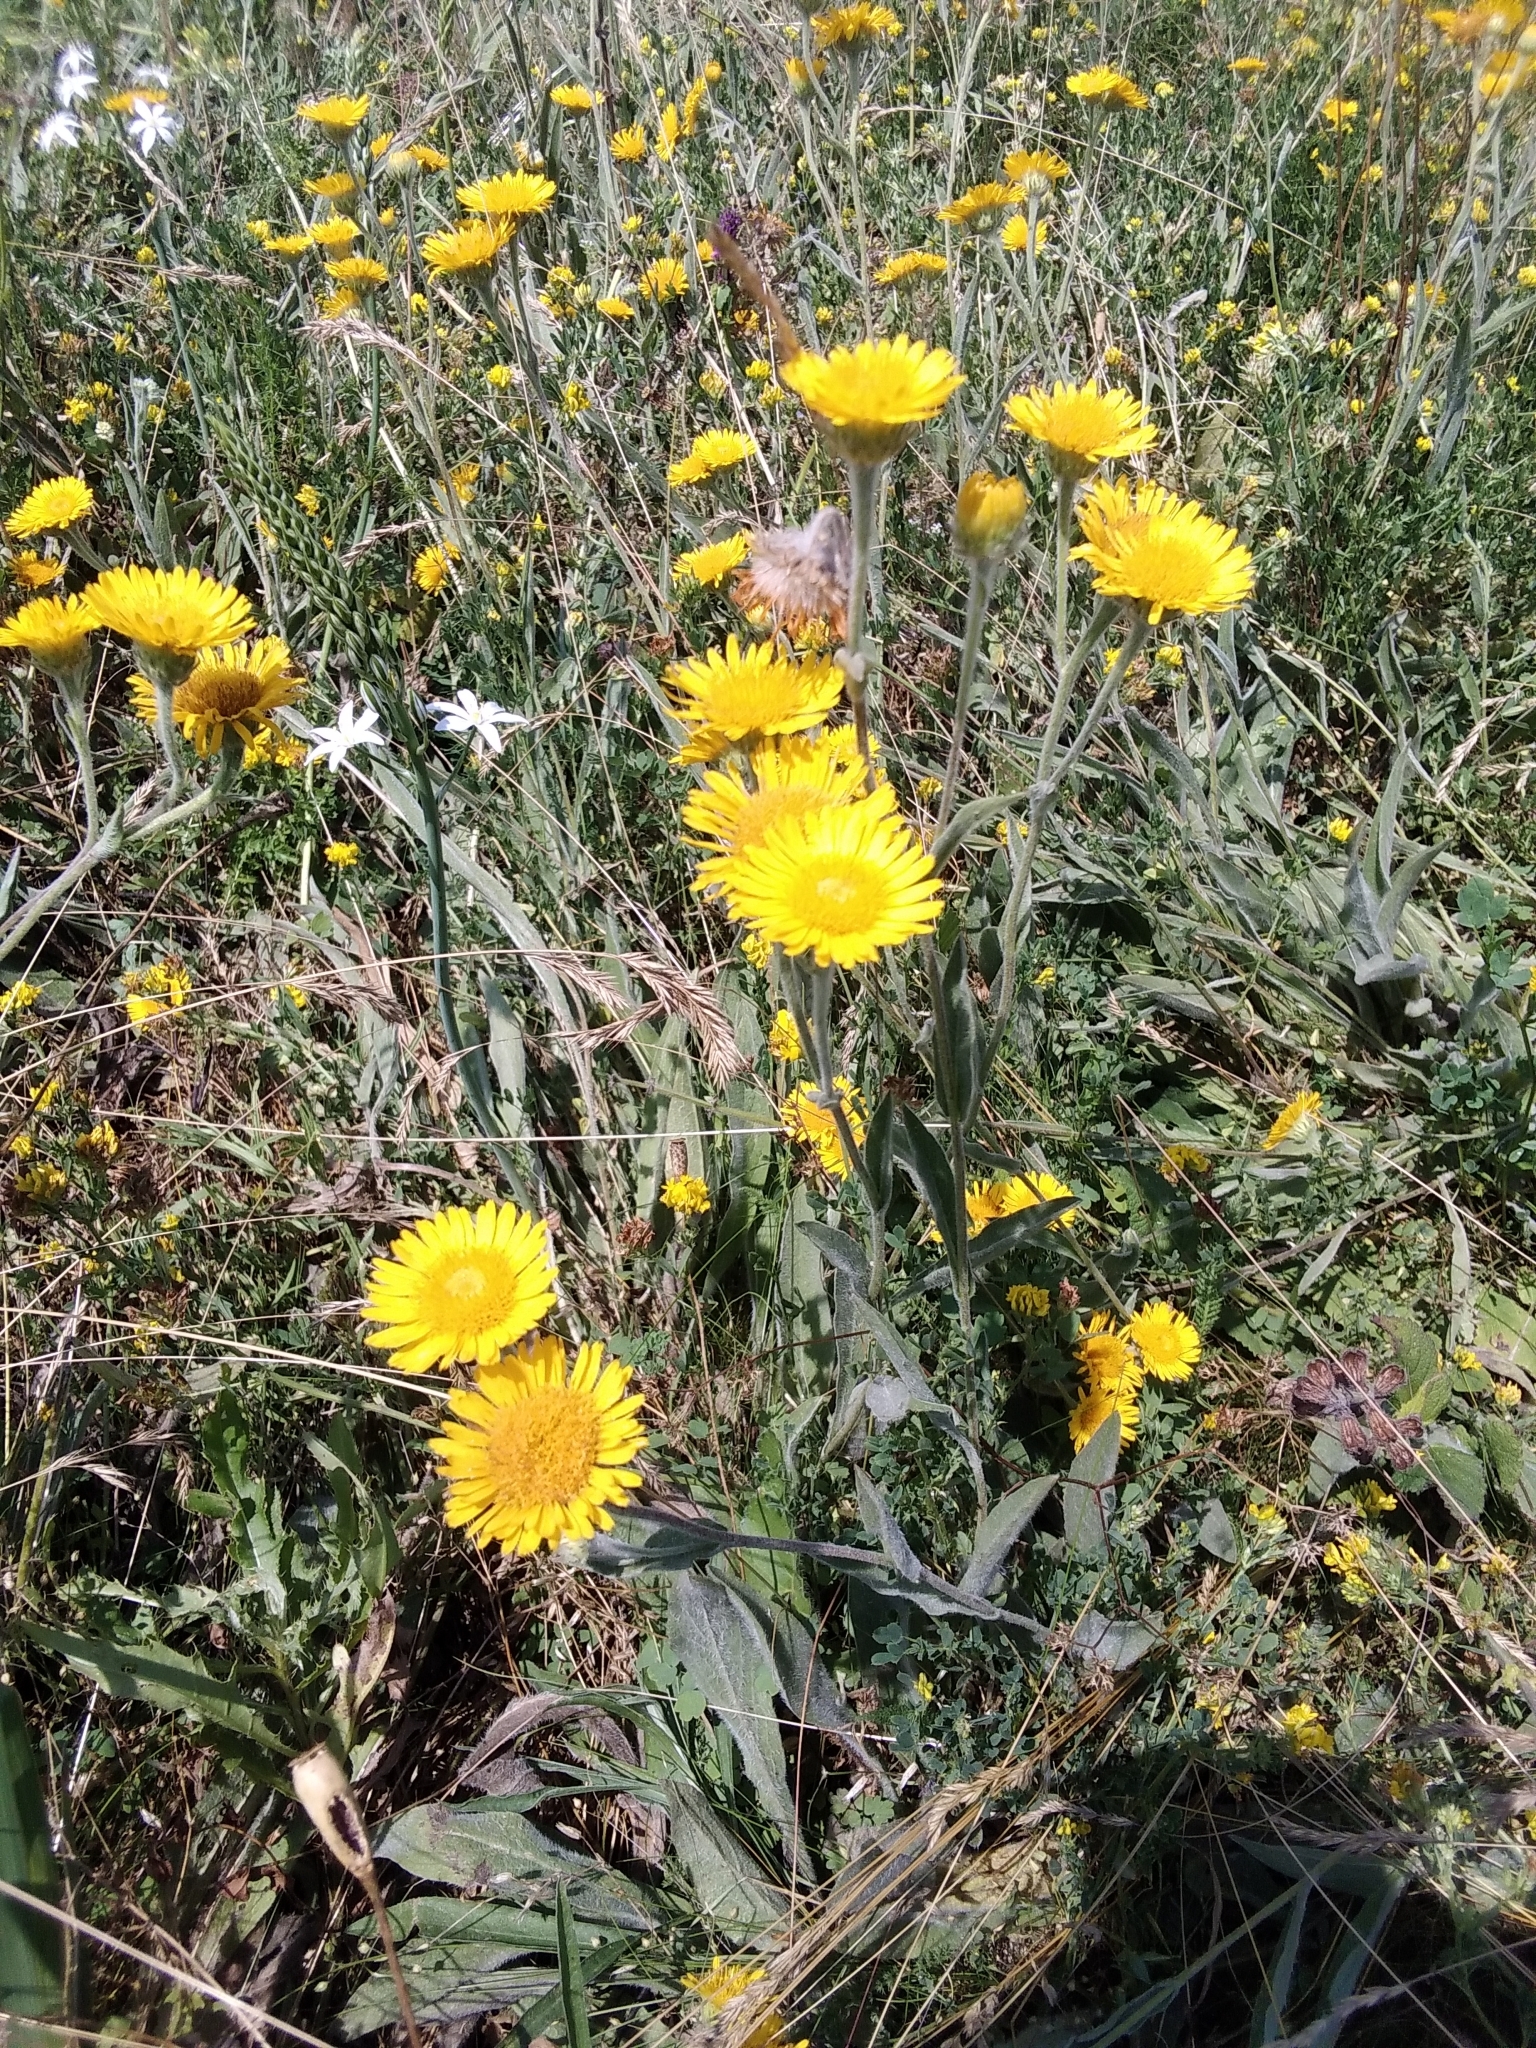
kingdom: Plantae
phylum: Tracheophyta
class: Magnoliopsida
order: Asterales
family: Asteraceae
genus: Pentanema
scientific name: Pentanema oculus-christi
